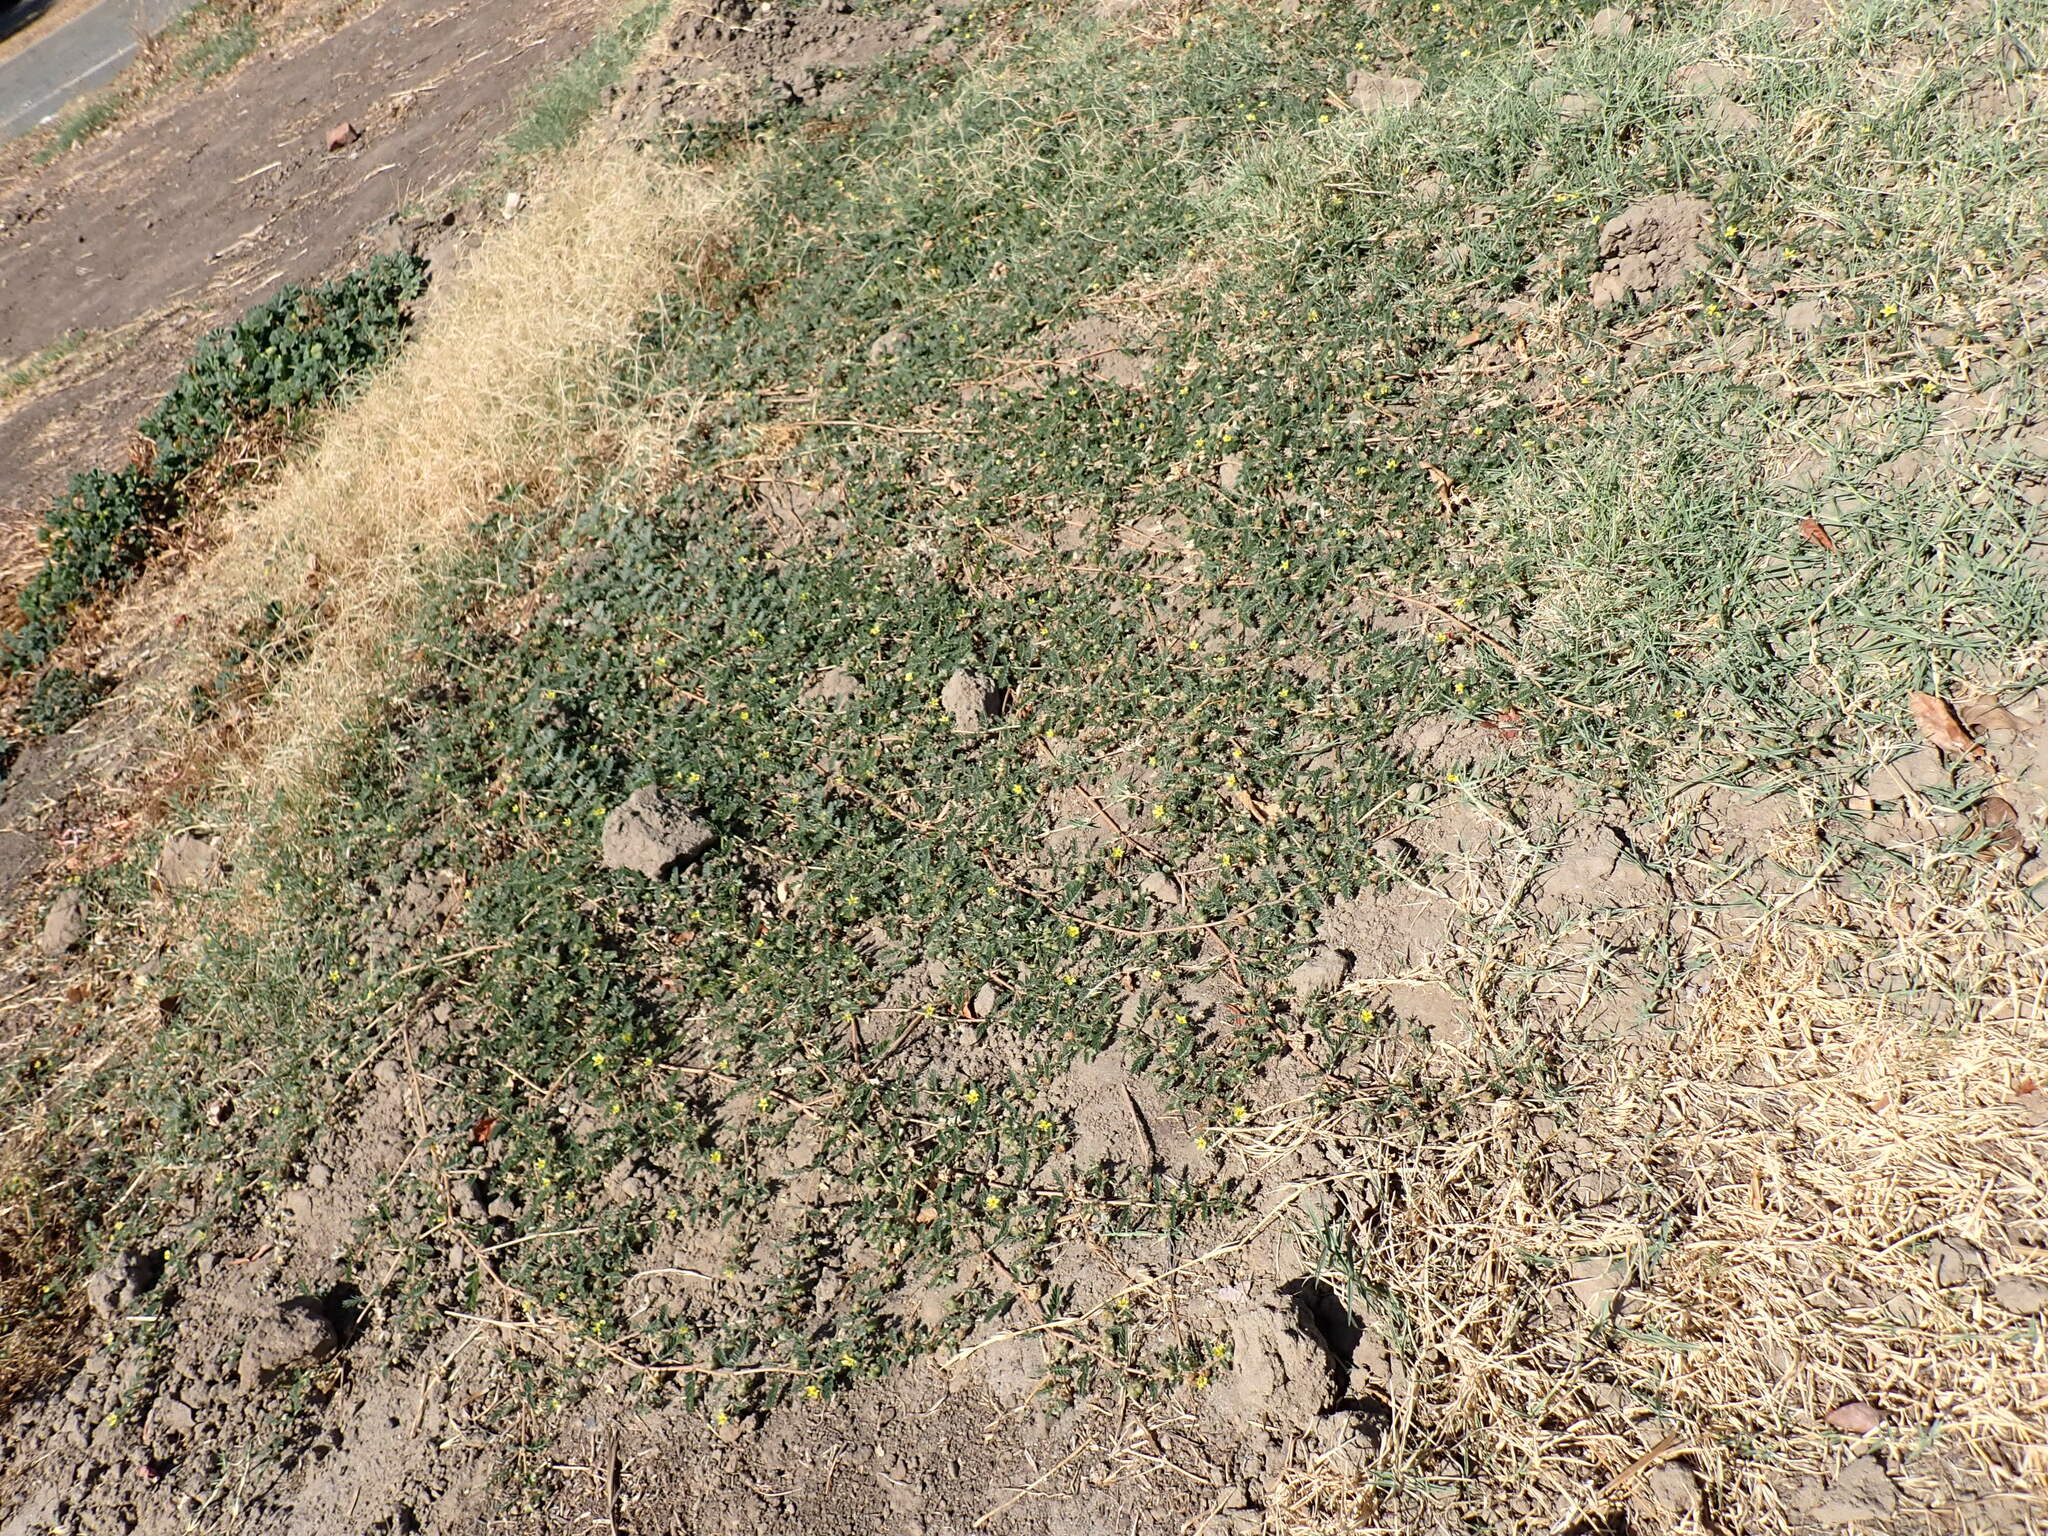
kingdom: Plantae
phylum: Tracheophyta
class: Magnoliopsida
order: Zygophyllales
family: Zygophyllaceae
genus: Tribulus
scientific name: Tribulus terrestris
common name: Puncturevine
